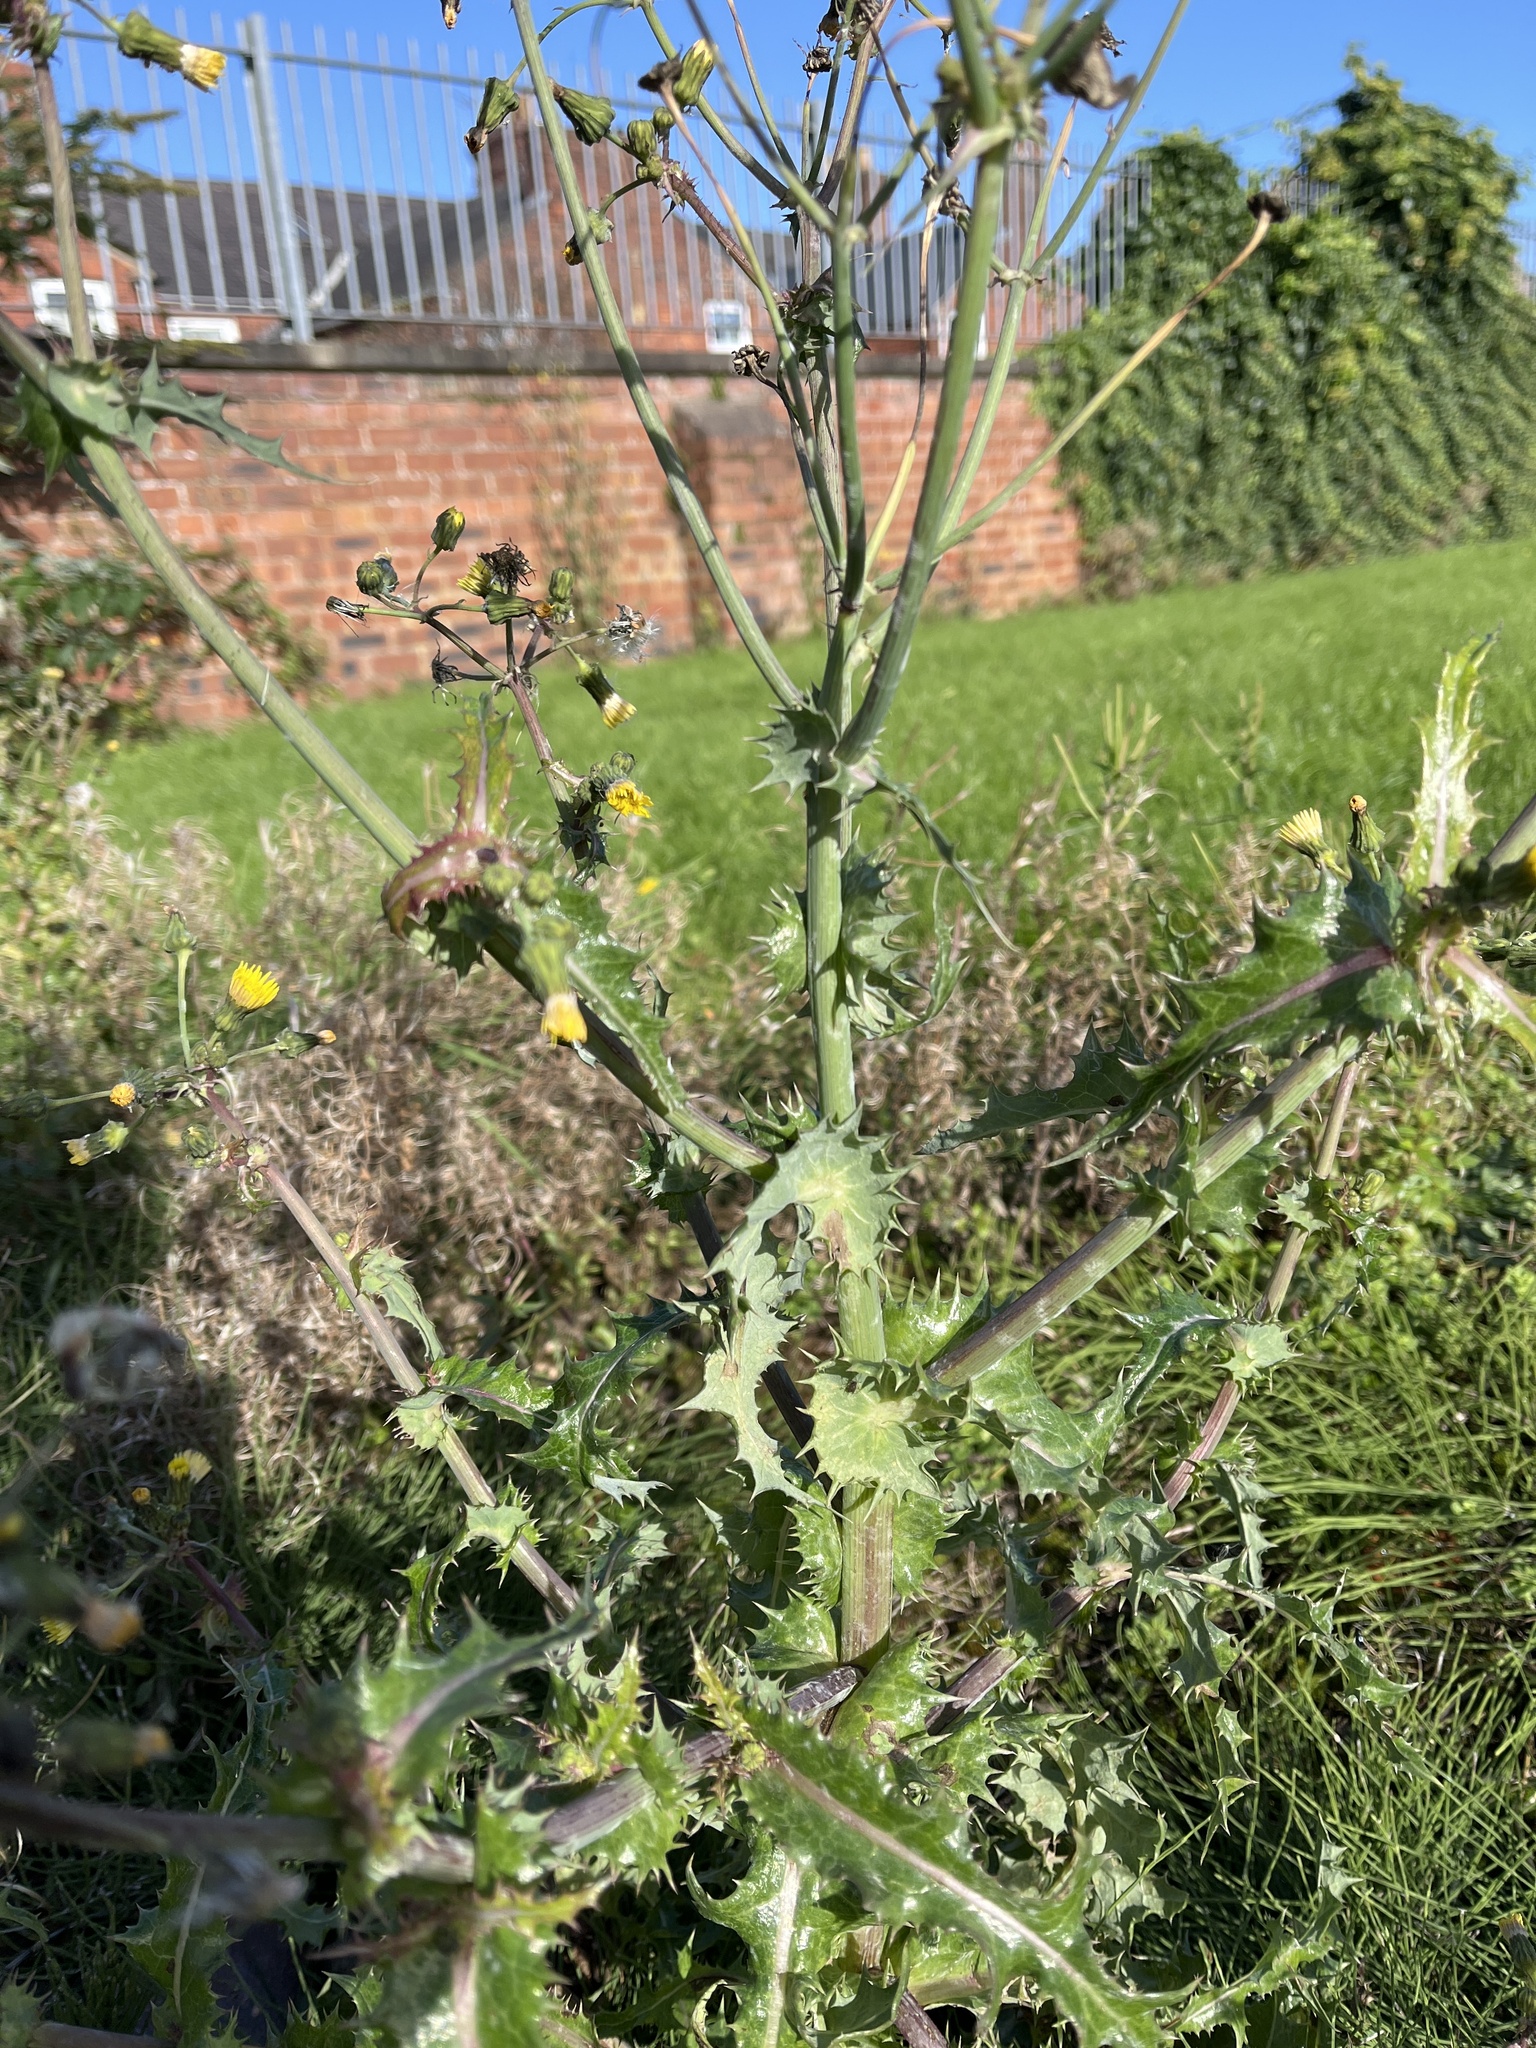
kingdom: Plantae
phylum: Tracheophyta
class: Magnoliopsida
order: Asterales
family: Asteraceae
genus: Sonchus
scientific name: Sonchus asper
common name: Prickly sow-thistle
